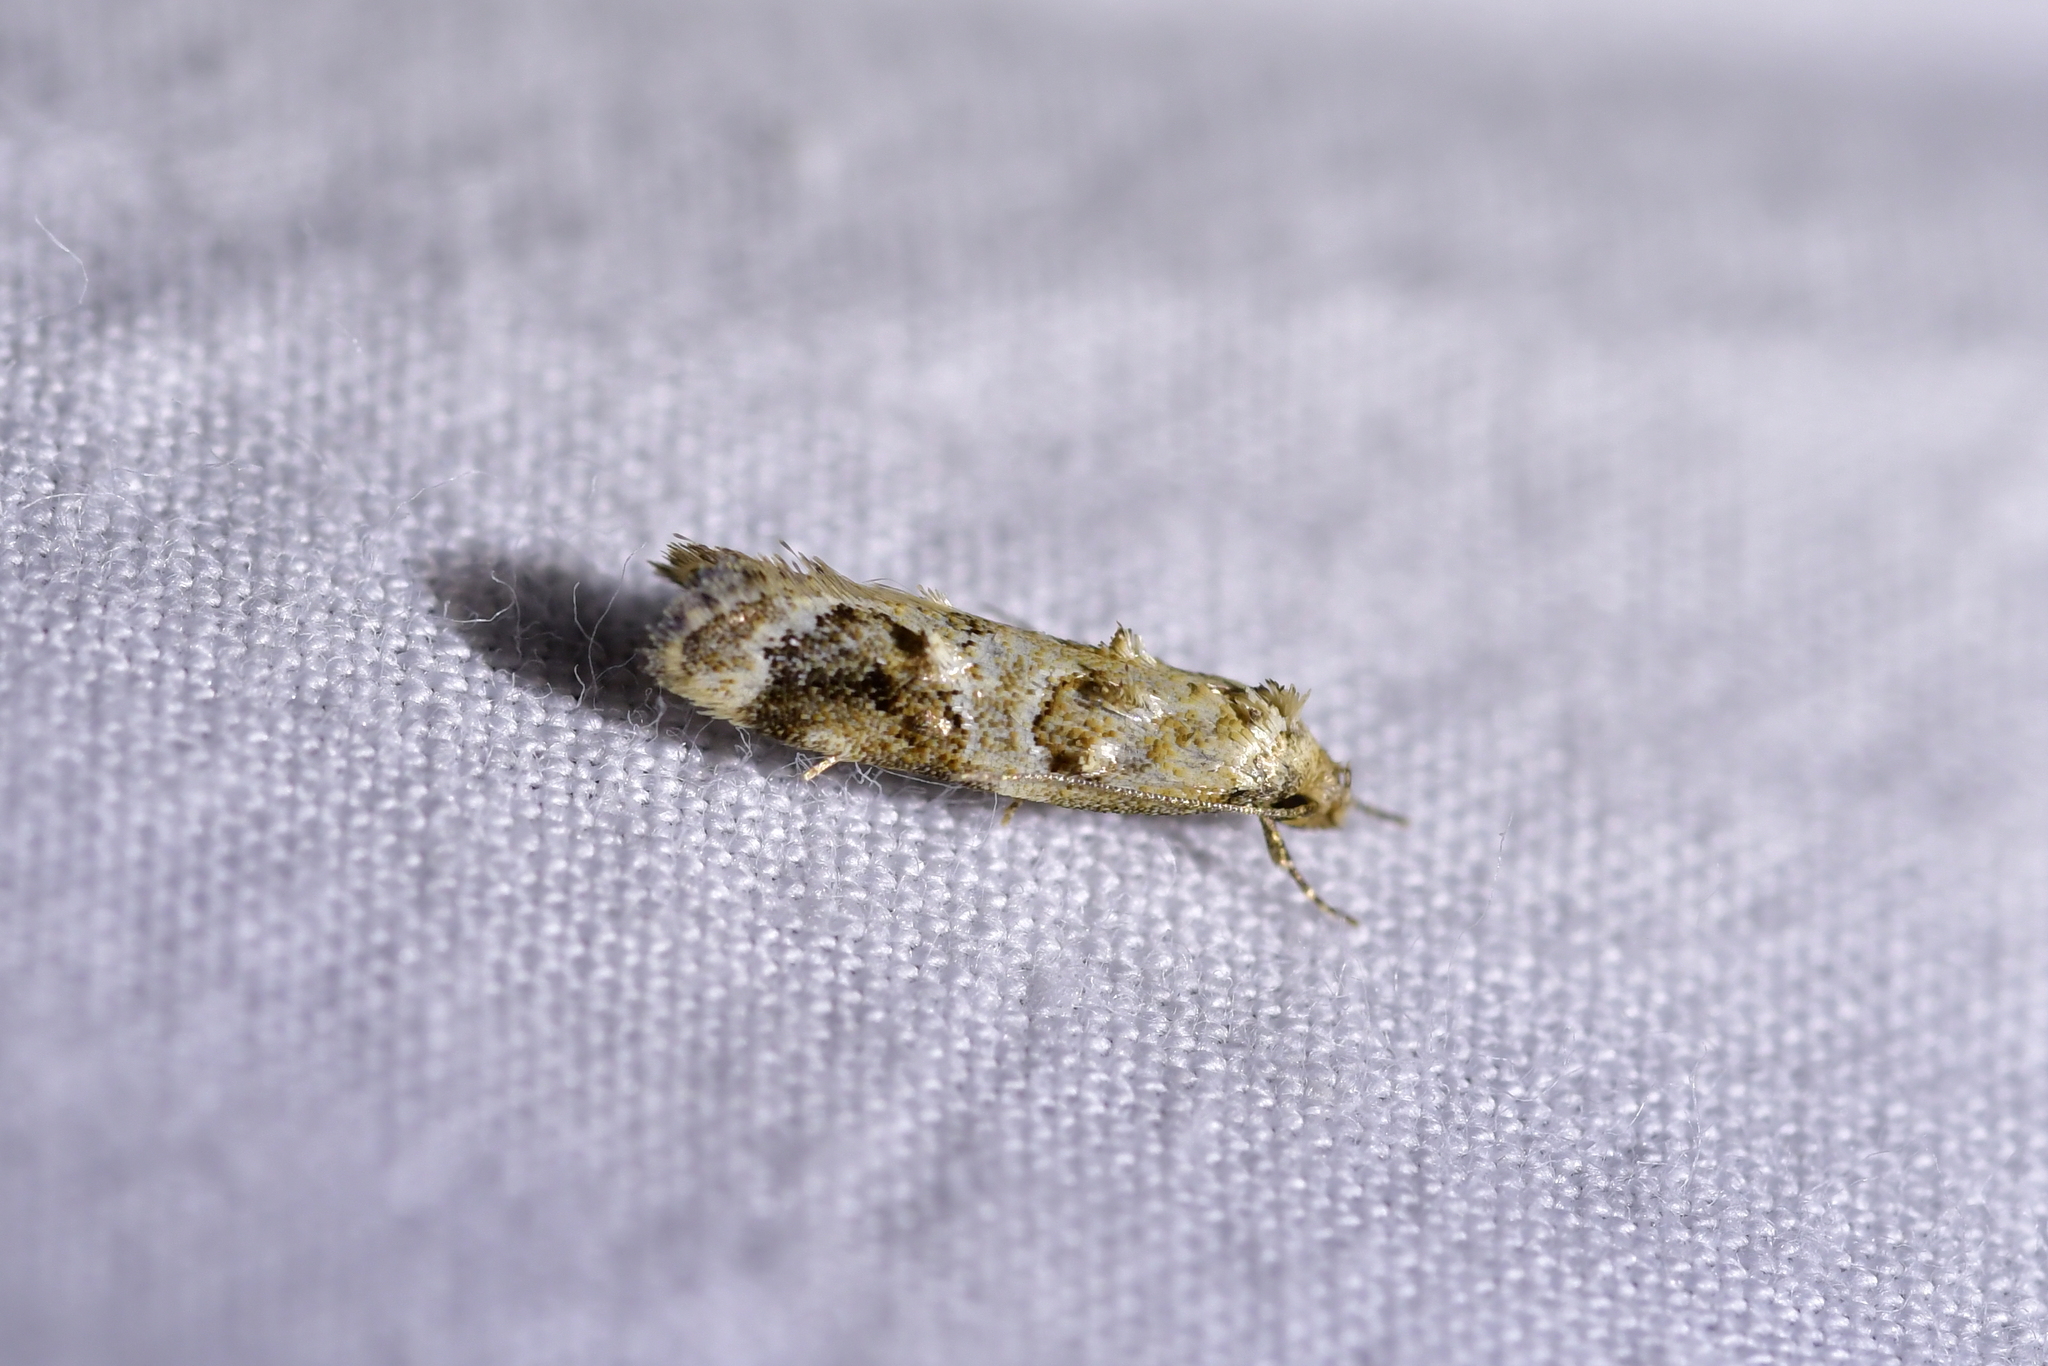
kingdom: Animalia
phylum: Arthropoda
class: Insecta
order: Lepidoptera
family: Oecophoridae
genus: Trachypepla
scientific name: Trachypepla aspidephora
